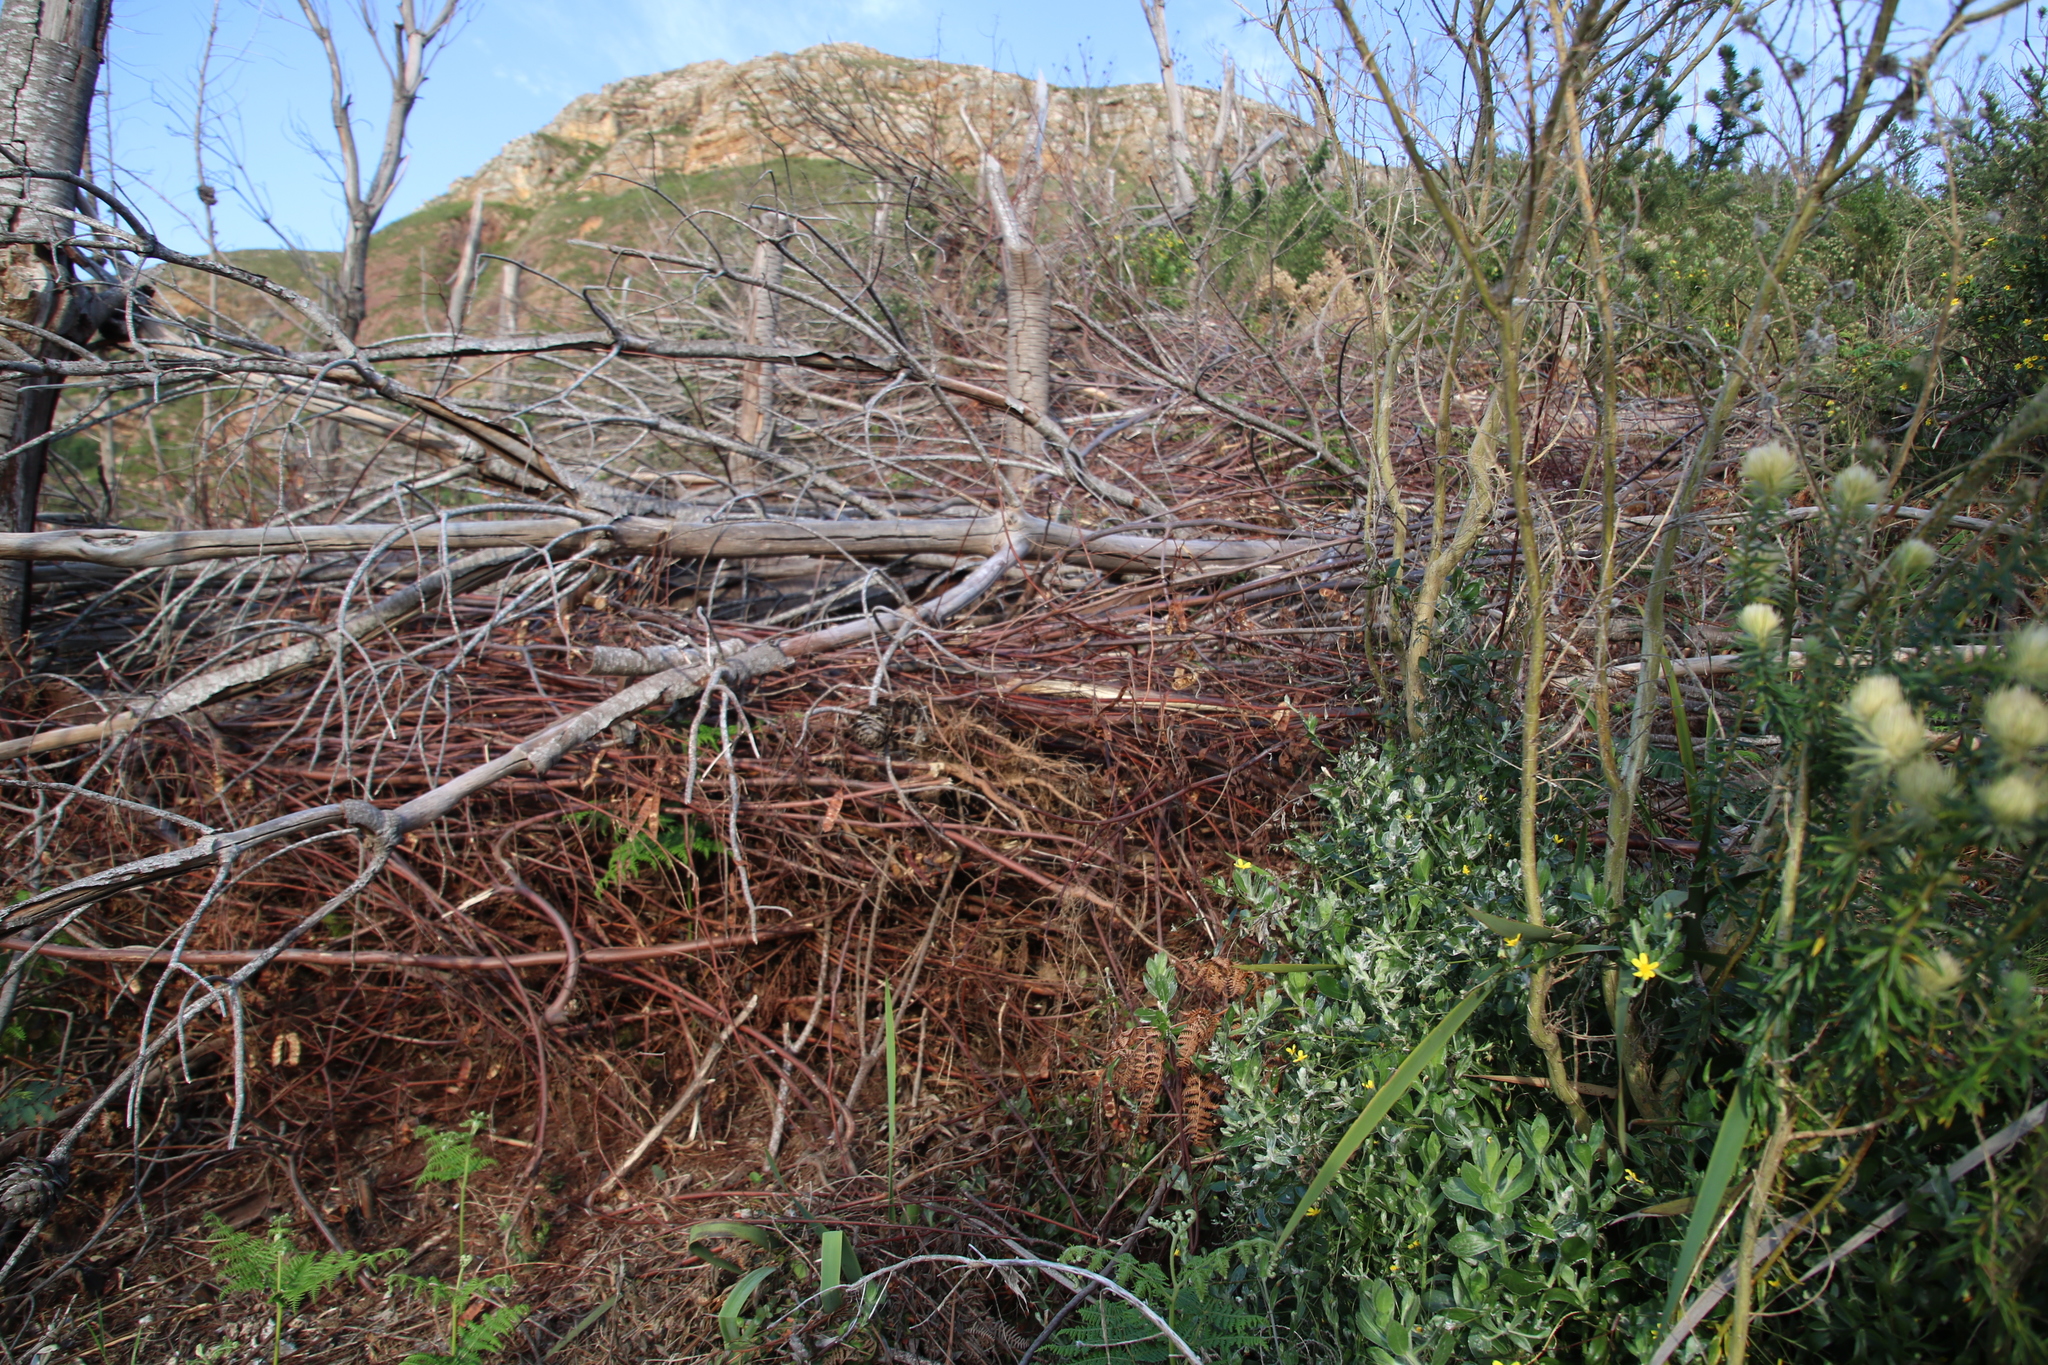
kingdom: Plantae
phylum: Tracheophyta
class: Magnoliopsida
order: Fabales
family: Fabaceae
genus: Paraserianthes
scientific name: Paraserianthes lophantha
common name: Plume albizia
